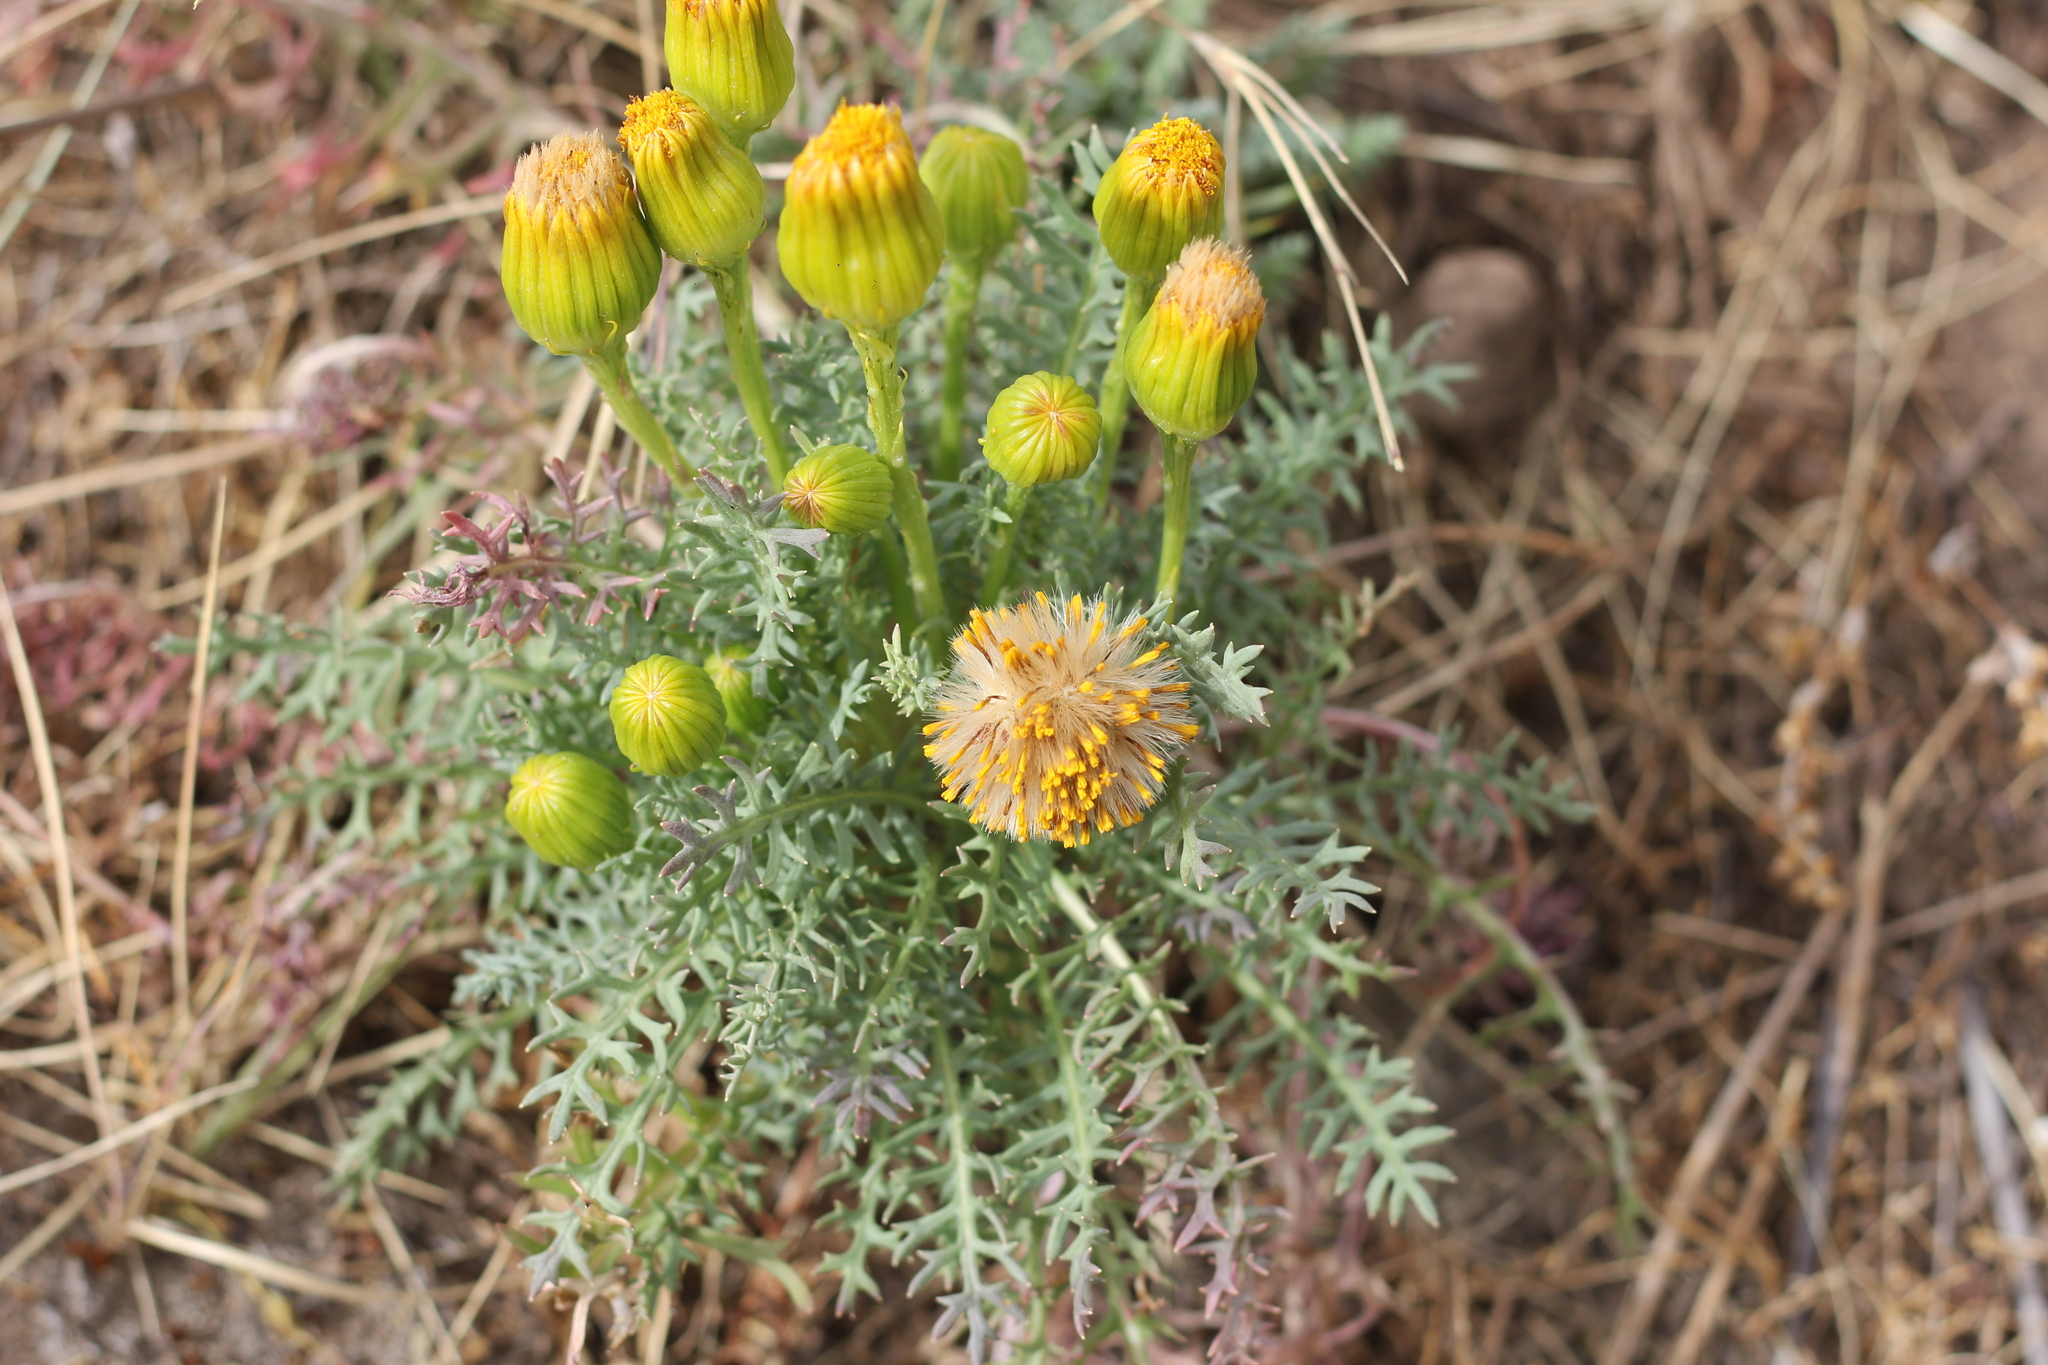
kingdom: Plantae
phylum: Tracheophyta
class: Magnoliopsida
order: Asterales
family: Asteraceae
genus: Senecio
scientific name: Senecio jarae
